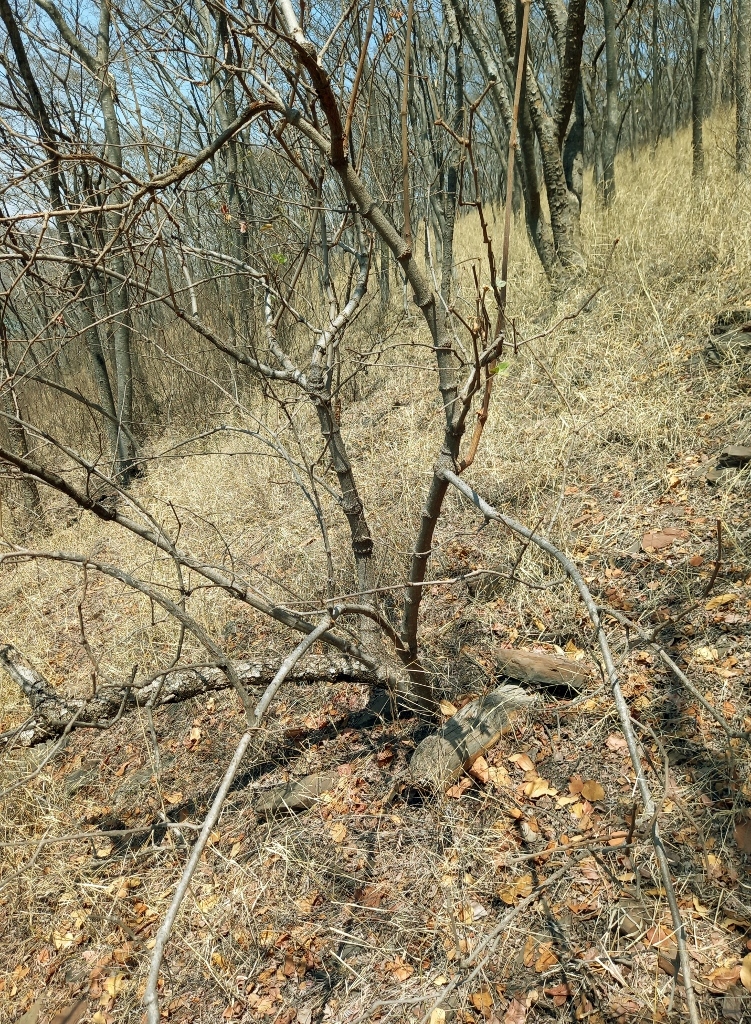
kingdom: Plantae
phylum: Tracheophyta
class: Magnoliopsida
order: Vitales
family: Vitaceae
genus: Rhoicissus
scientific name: Rhoicissus revoilii
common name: Bushveld grape
